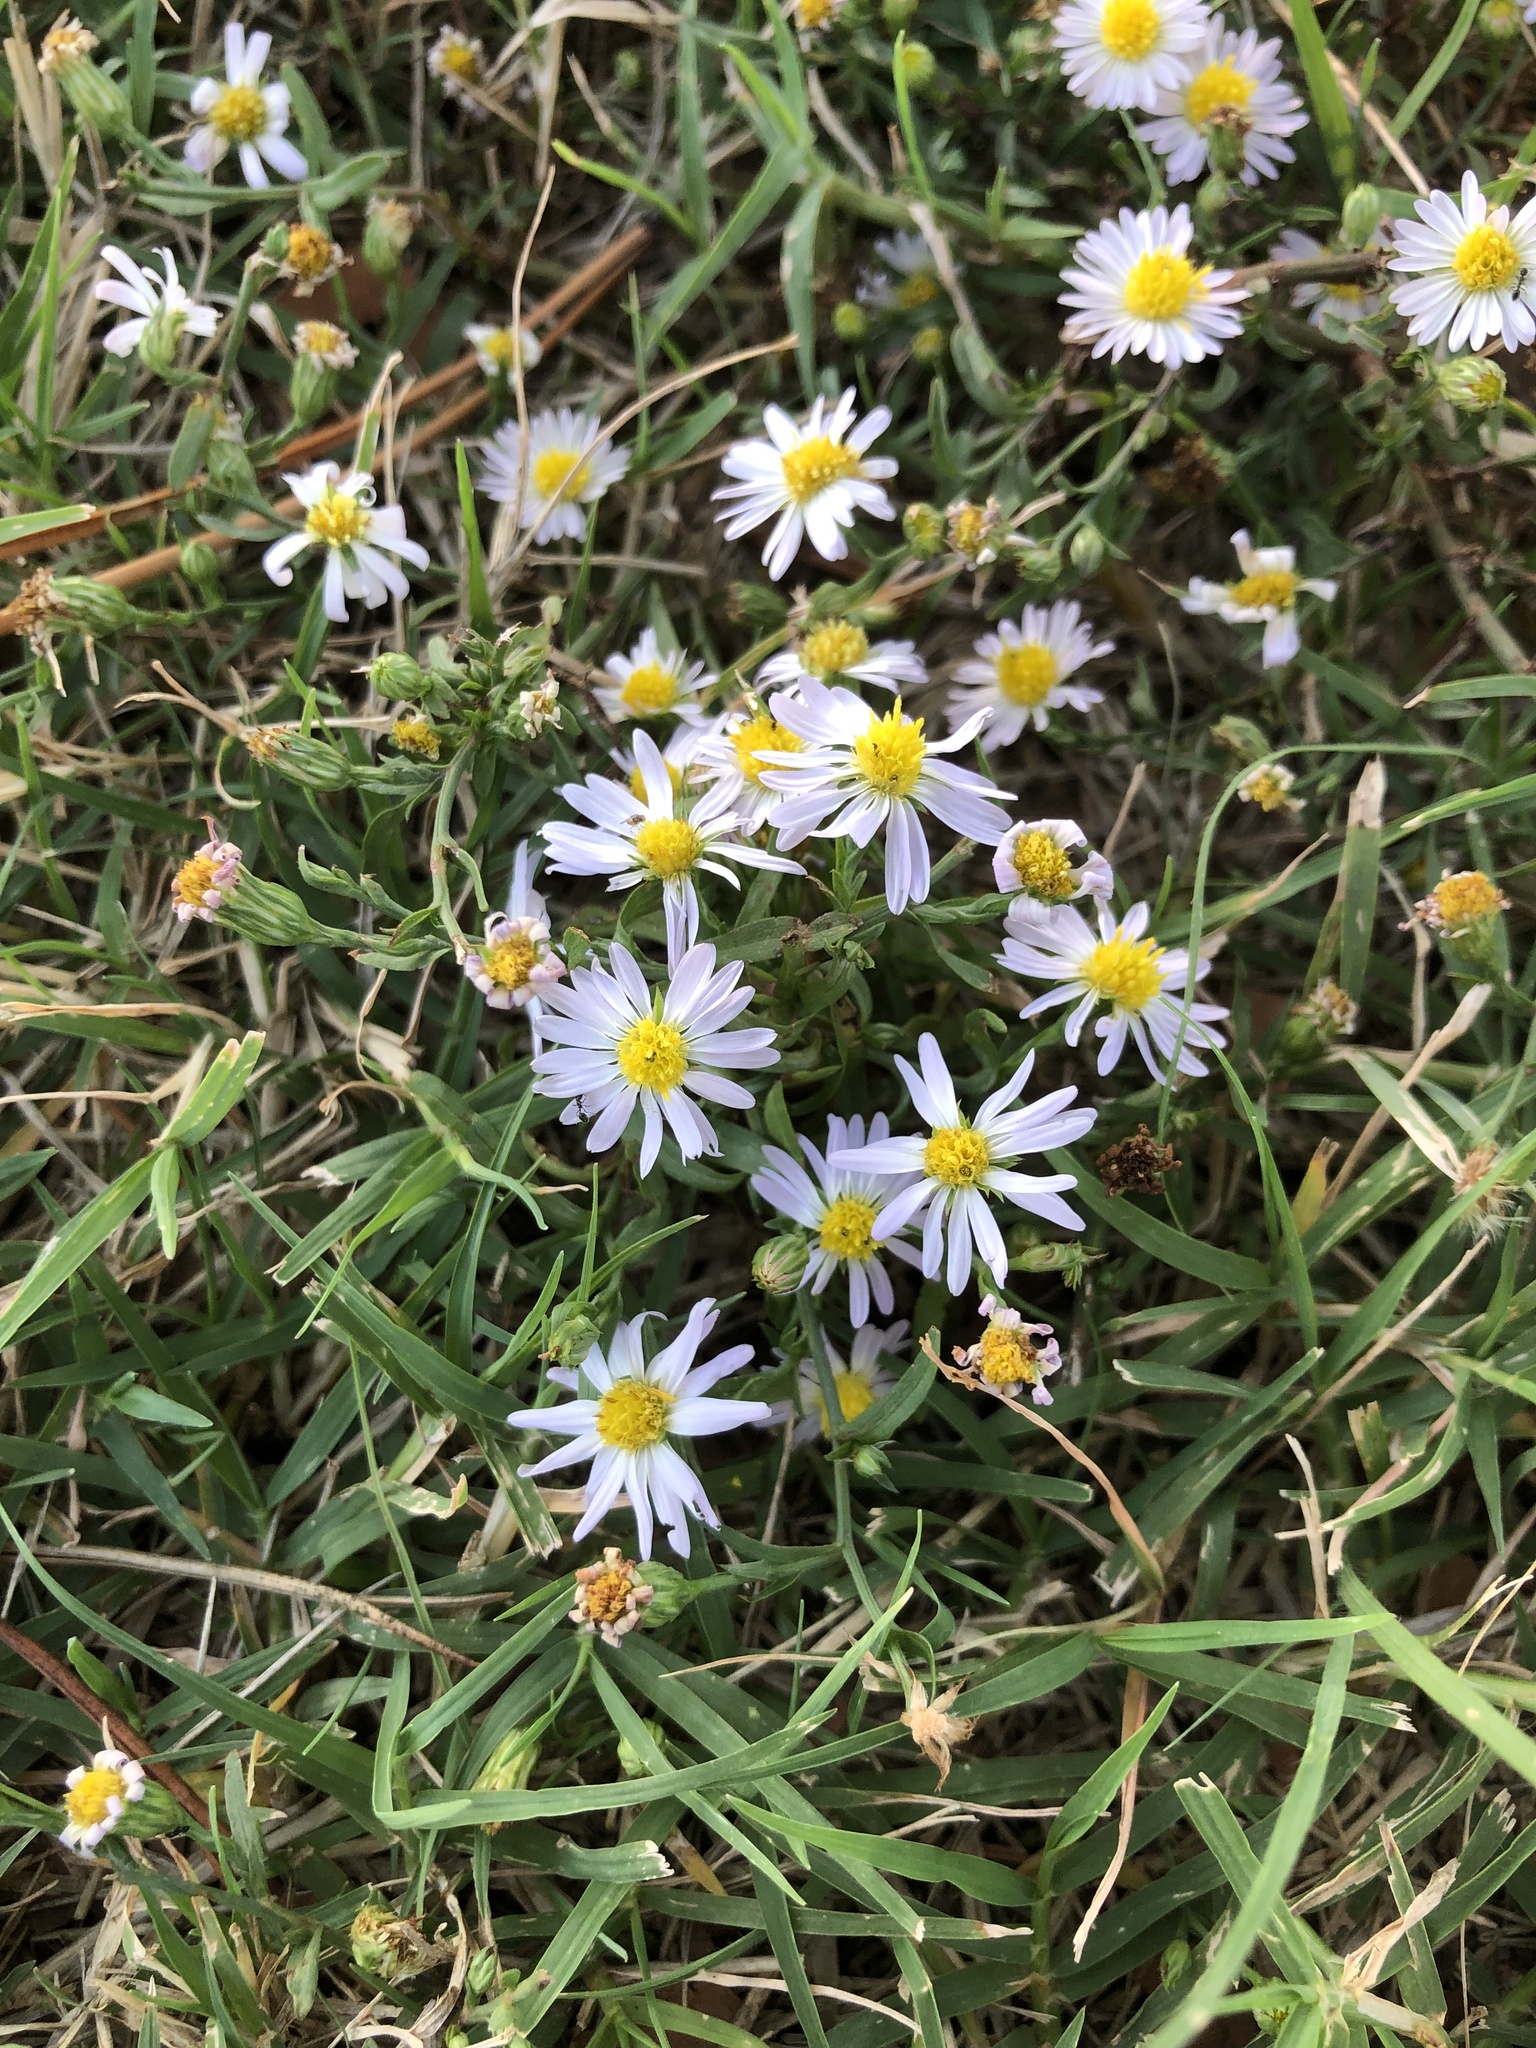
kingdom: Plantae
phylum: Tracheophyta
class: Magnoliopsida
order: Asterales
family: Asteraceae
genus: Symphyotrichum
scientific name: Symphyotrichum divaricatum
